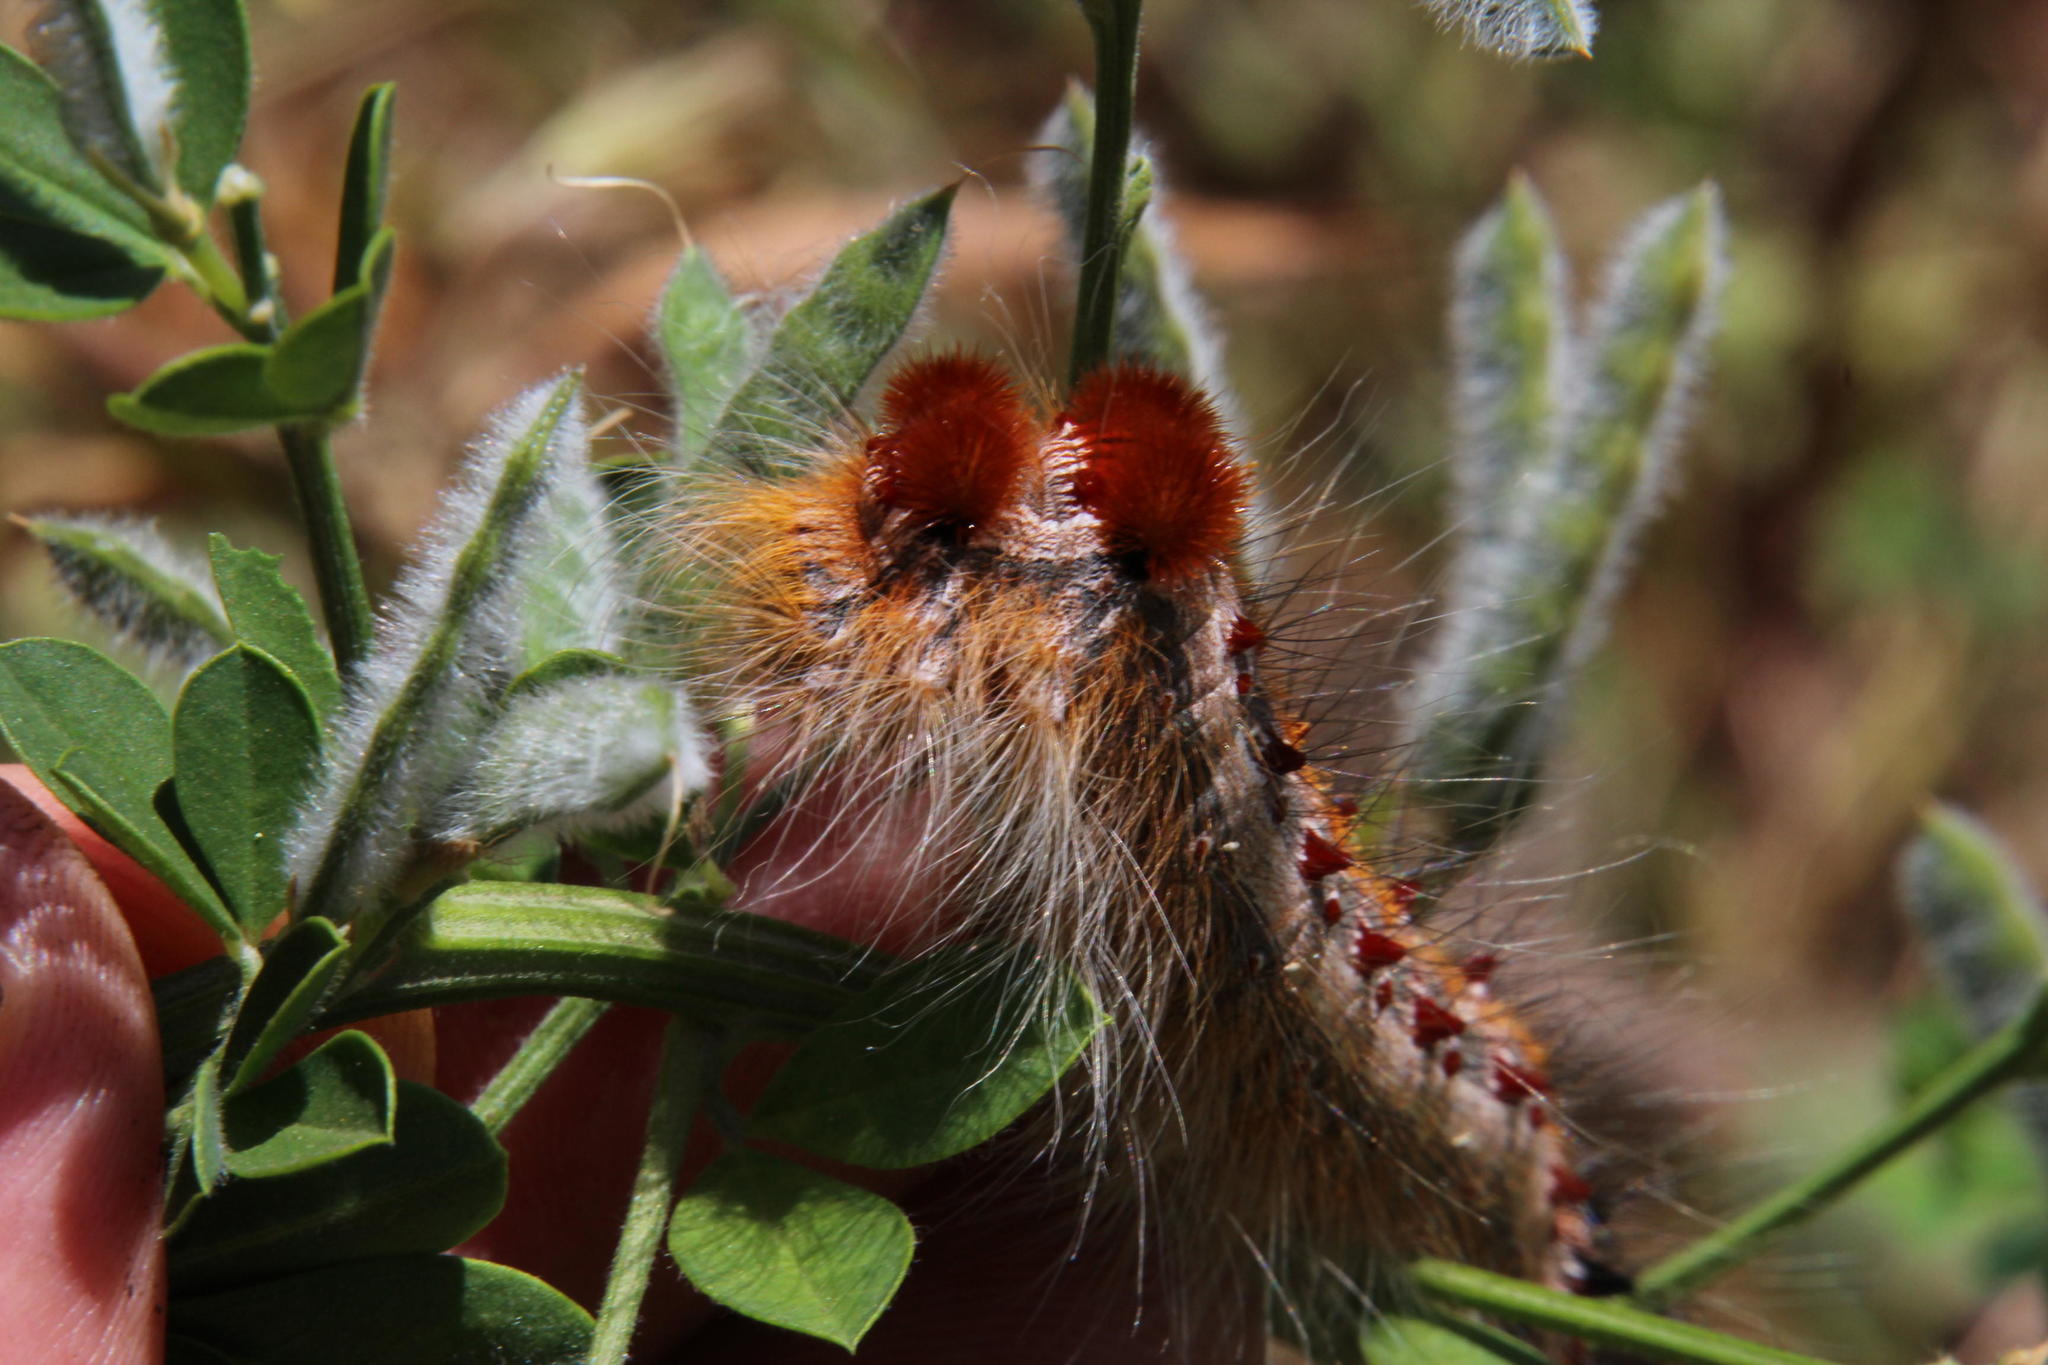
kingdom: Animalia
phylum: Arthropoda
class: Insecta
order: Lepidoptera
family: Lasiocampidae
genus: Streblote
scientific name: Streblote cristata
